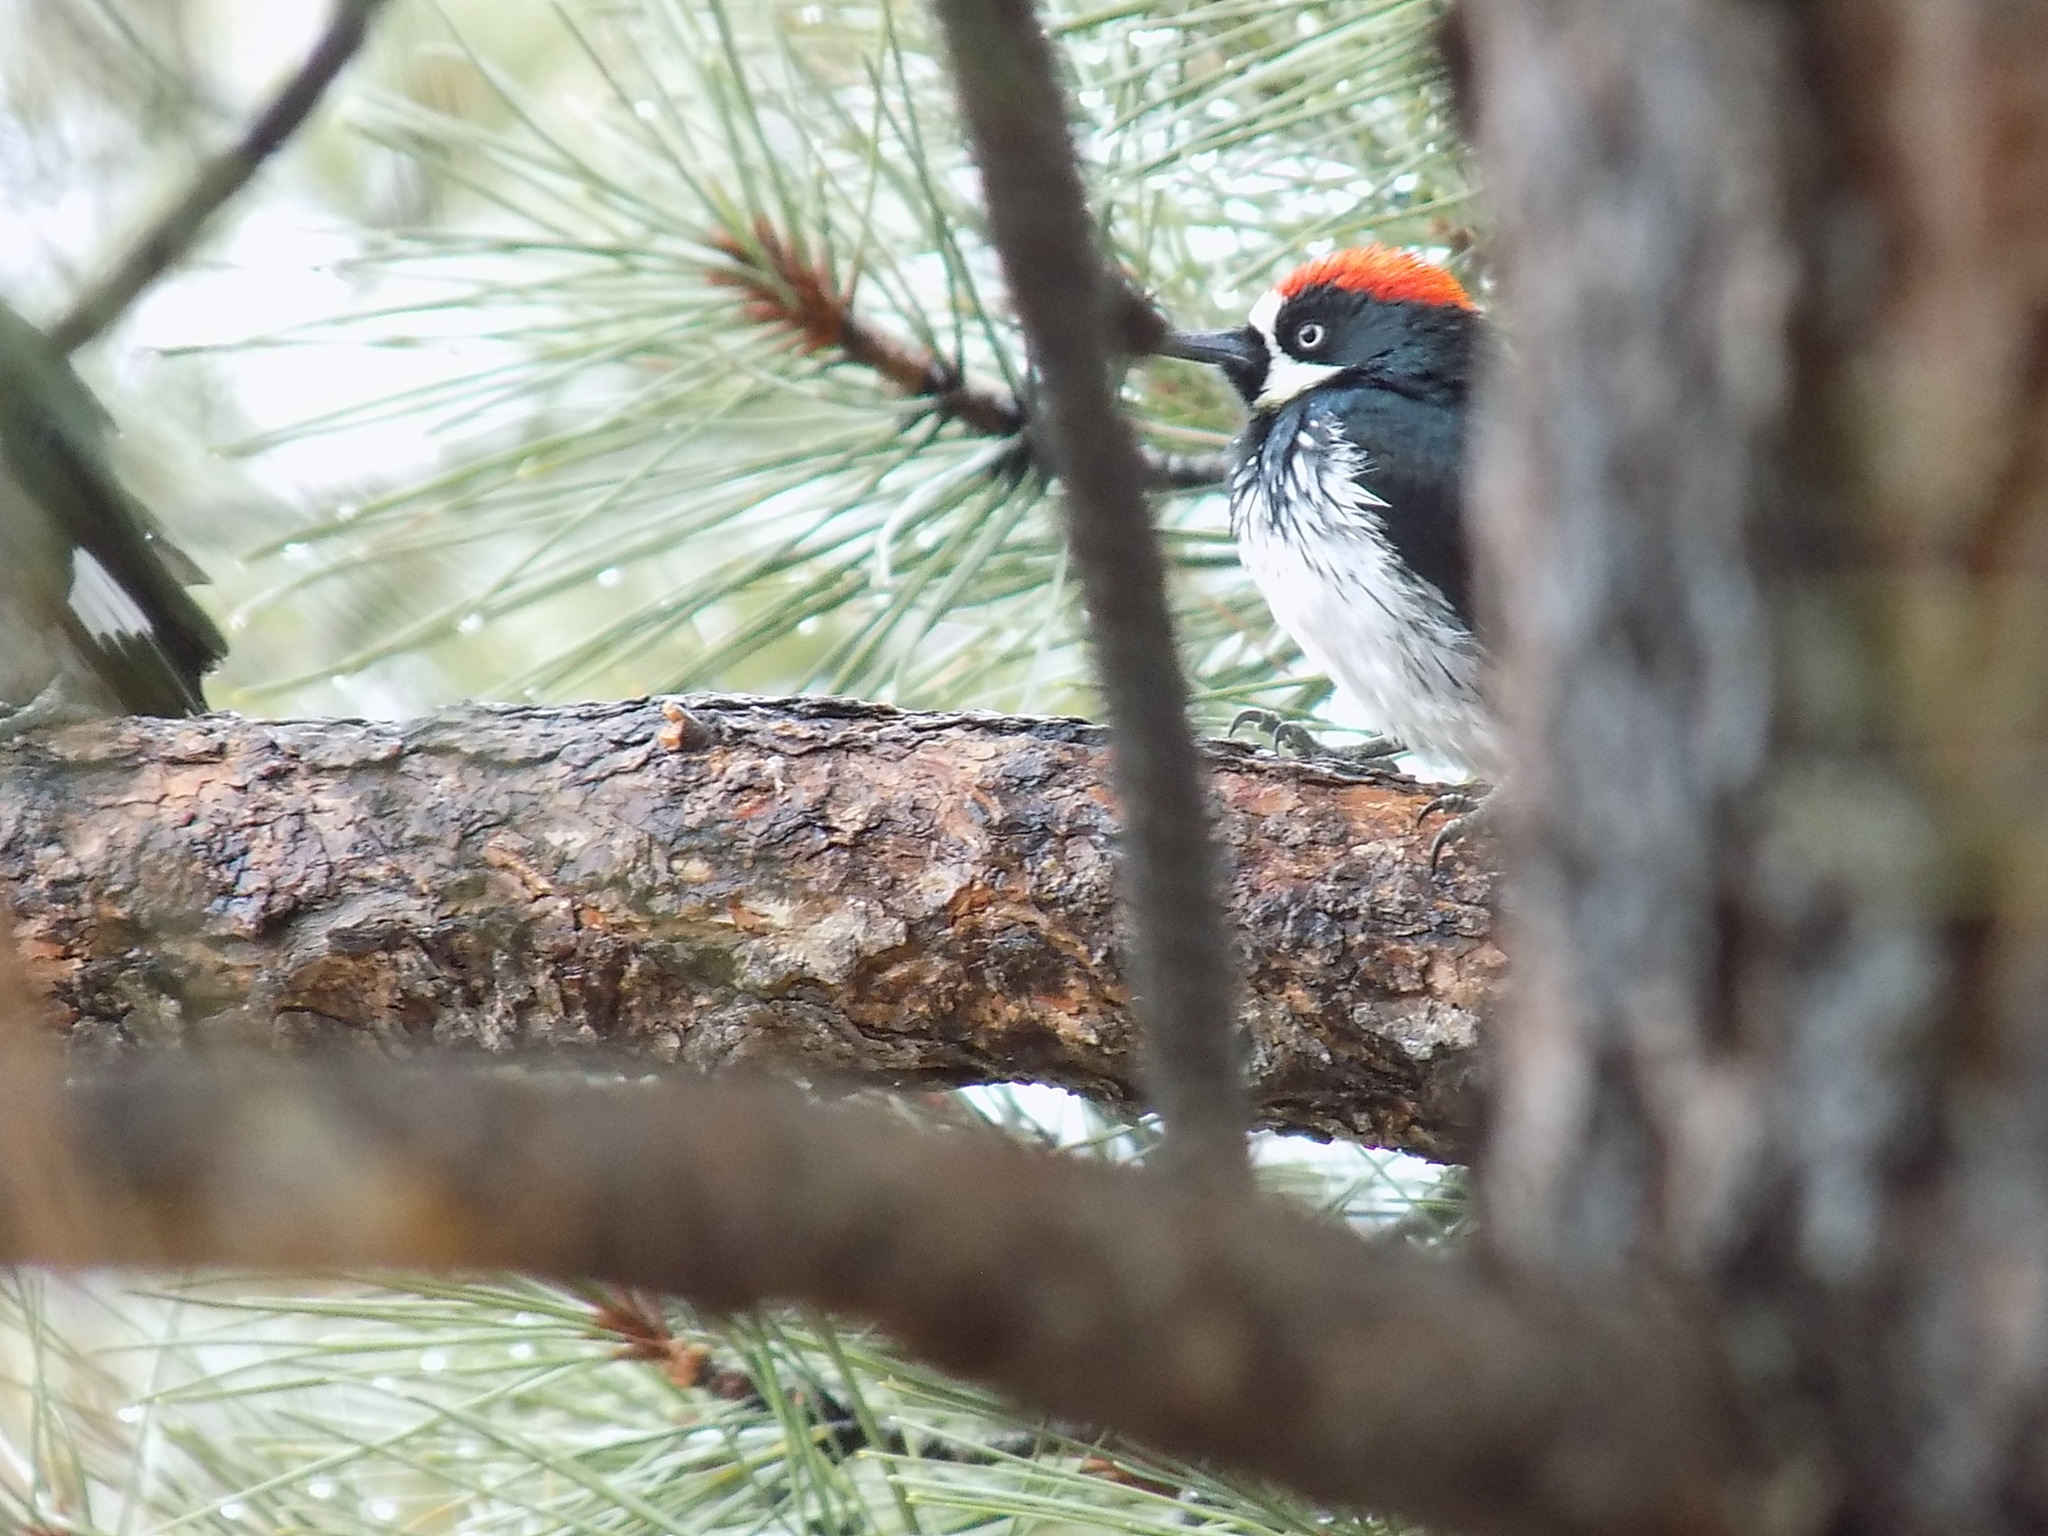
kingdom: Animalia
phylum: Chordata
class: Aves
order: Piciformes
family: Picidae
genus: Melanerpes
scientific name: Melanerpes formicivorus
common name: Acorn woodpecker
